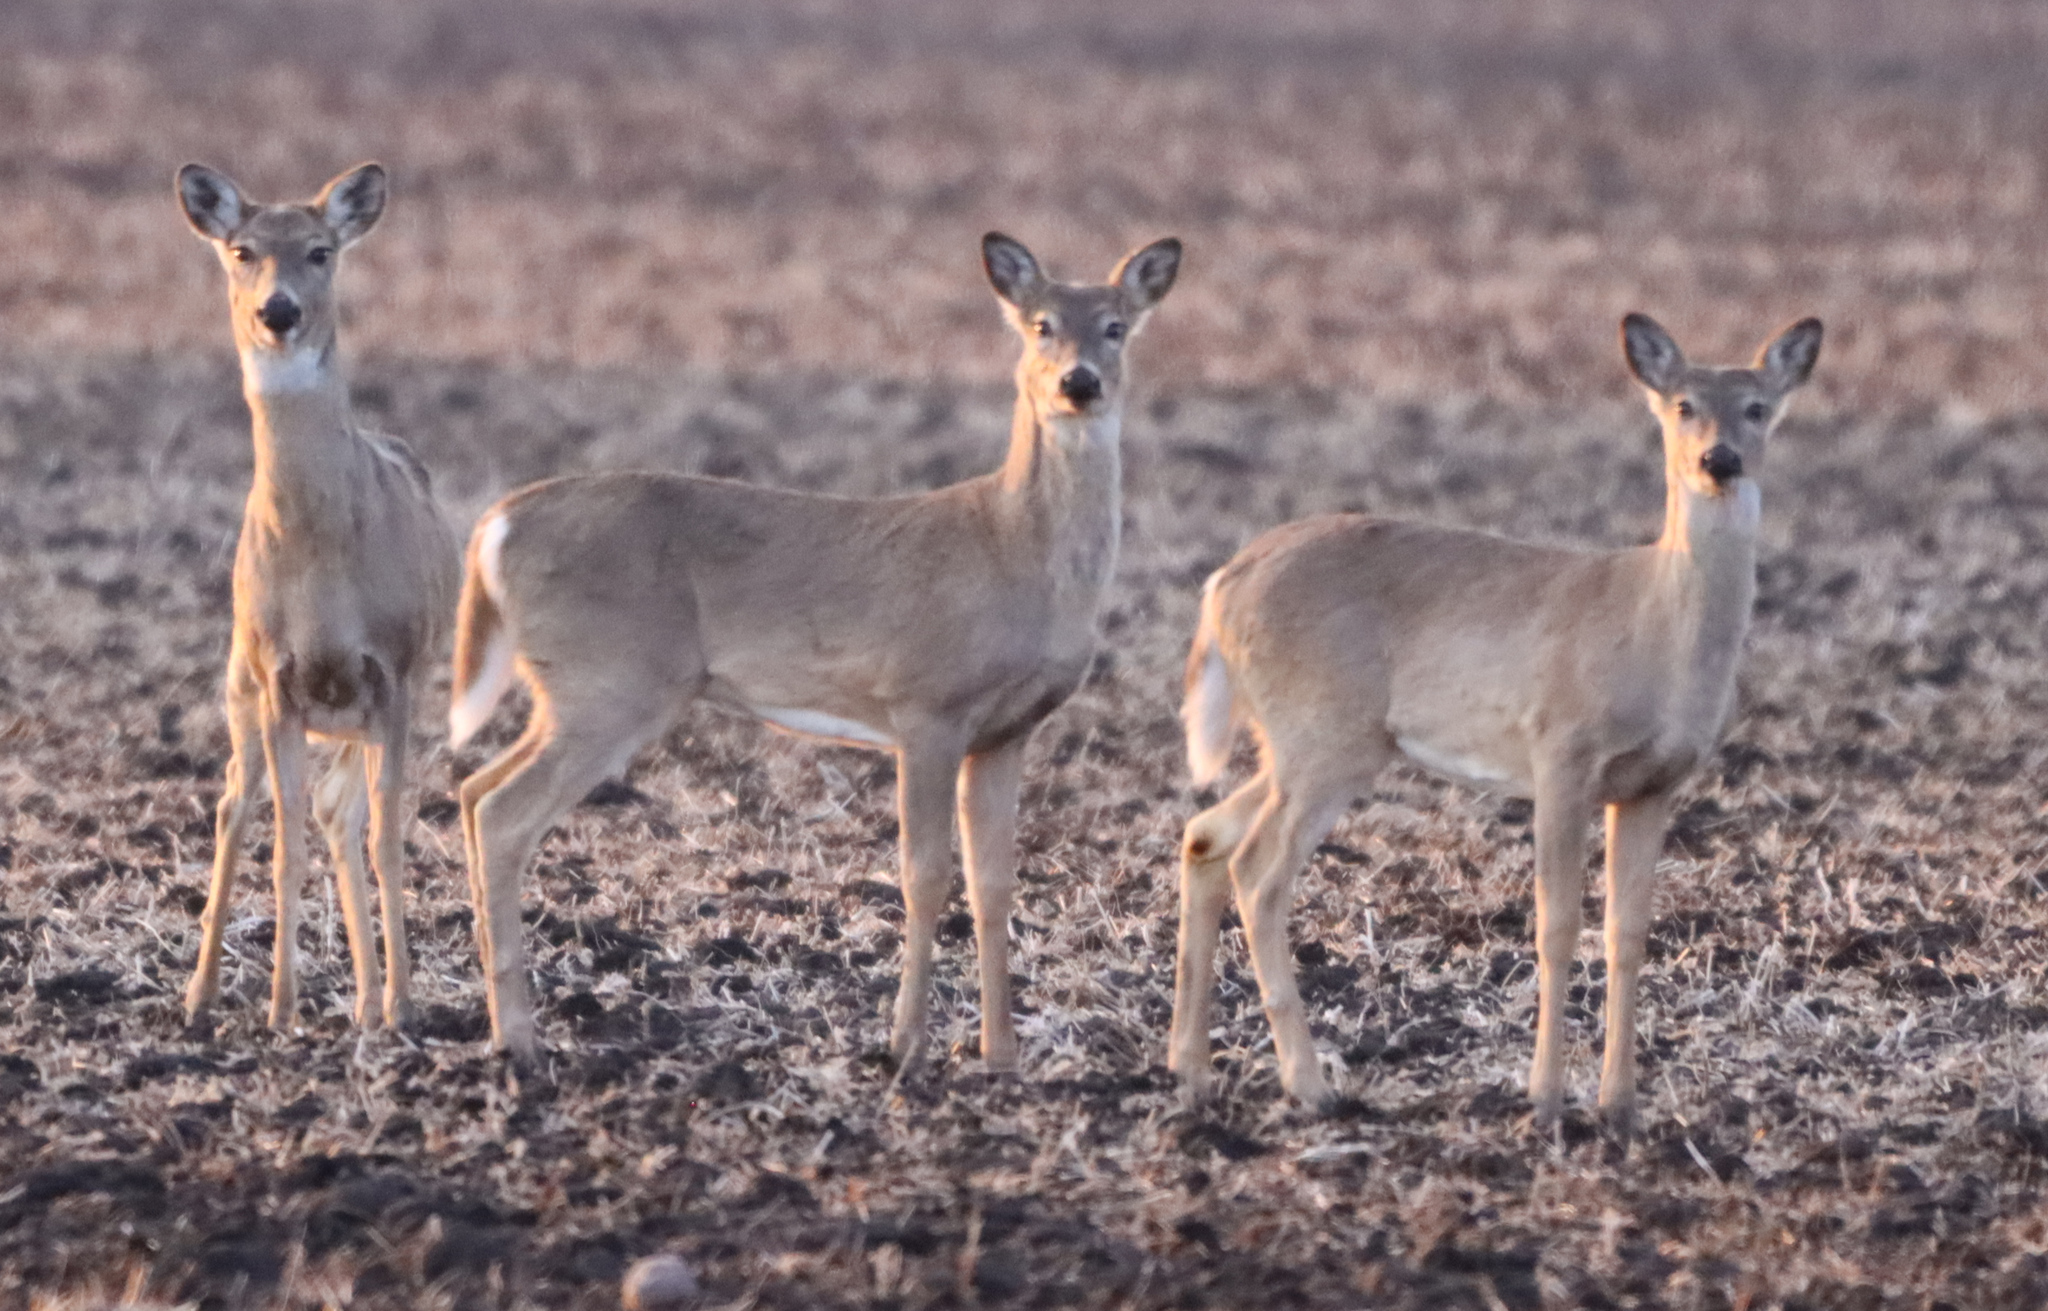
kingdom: Animalia
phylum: Chordata
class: Mammalia
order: Artiodactyla
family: Cervidae
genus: Odocoileus
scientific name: Odocoileus virginianus
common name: White-tailed deer
